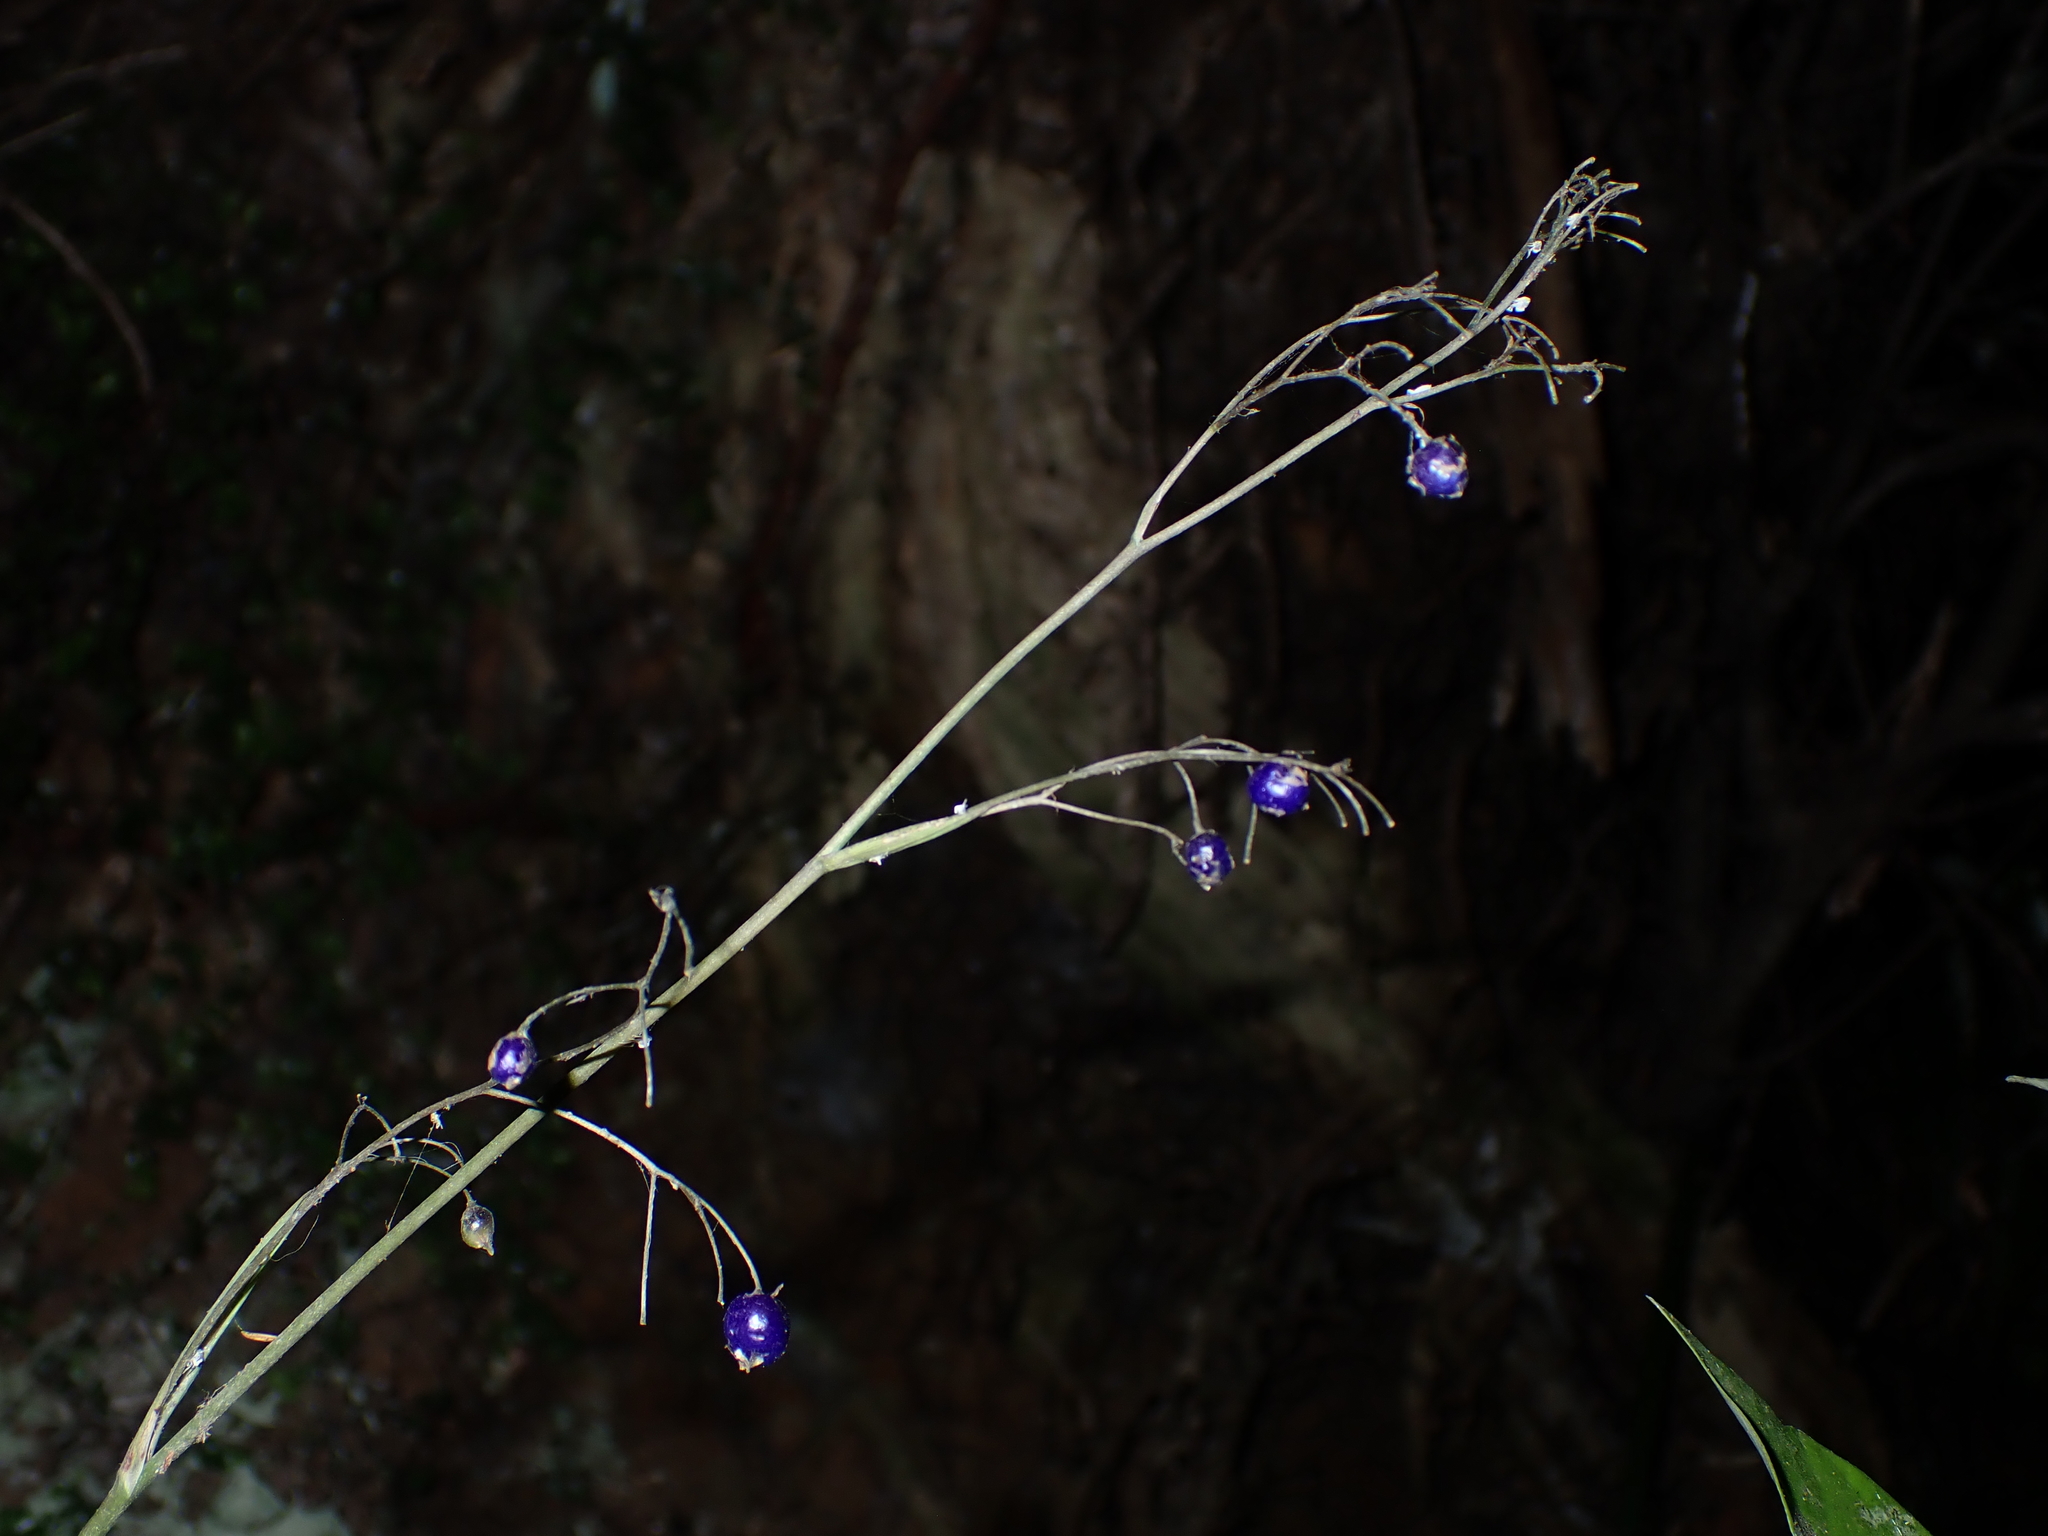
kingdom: Plantae
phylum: Tracheophyta
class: Liliopsida
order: Asparagales
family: Asphodelaceae
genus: Dianella
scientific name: Dianella nigra
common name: New zealand-blueberry
